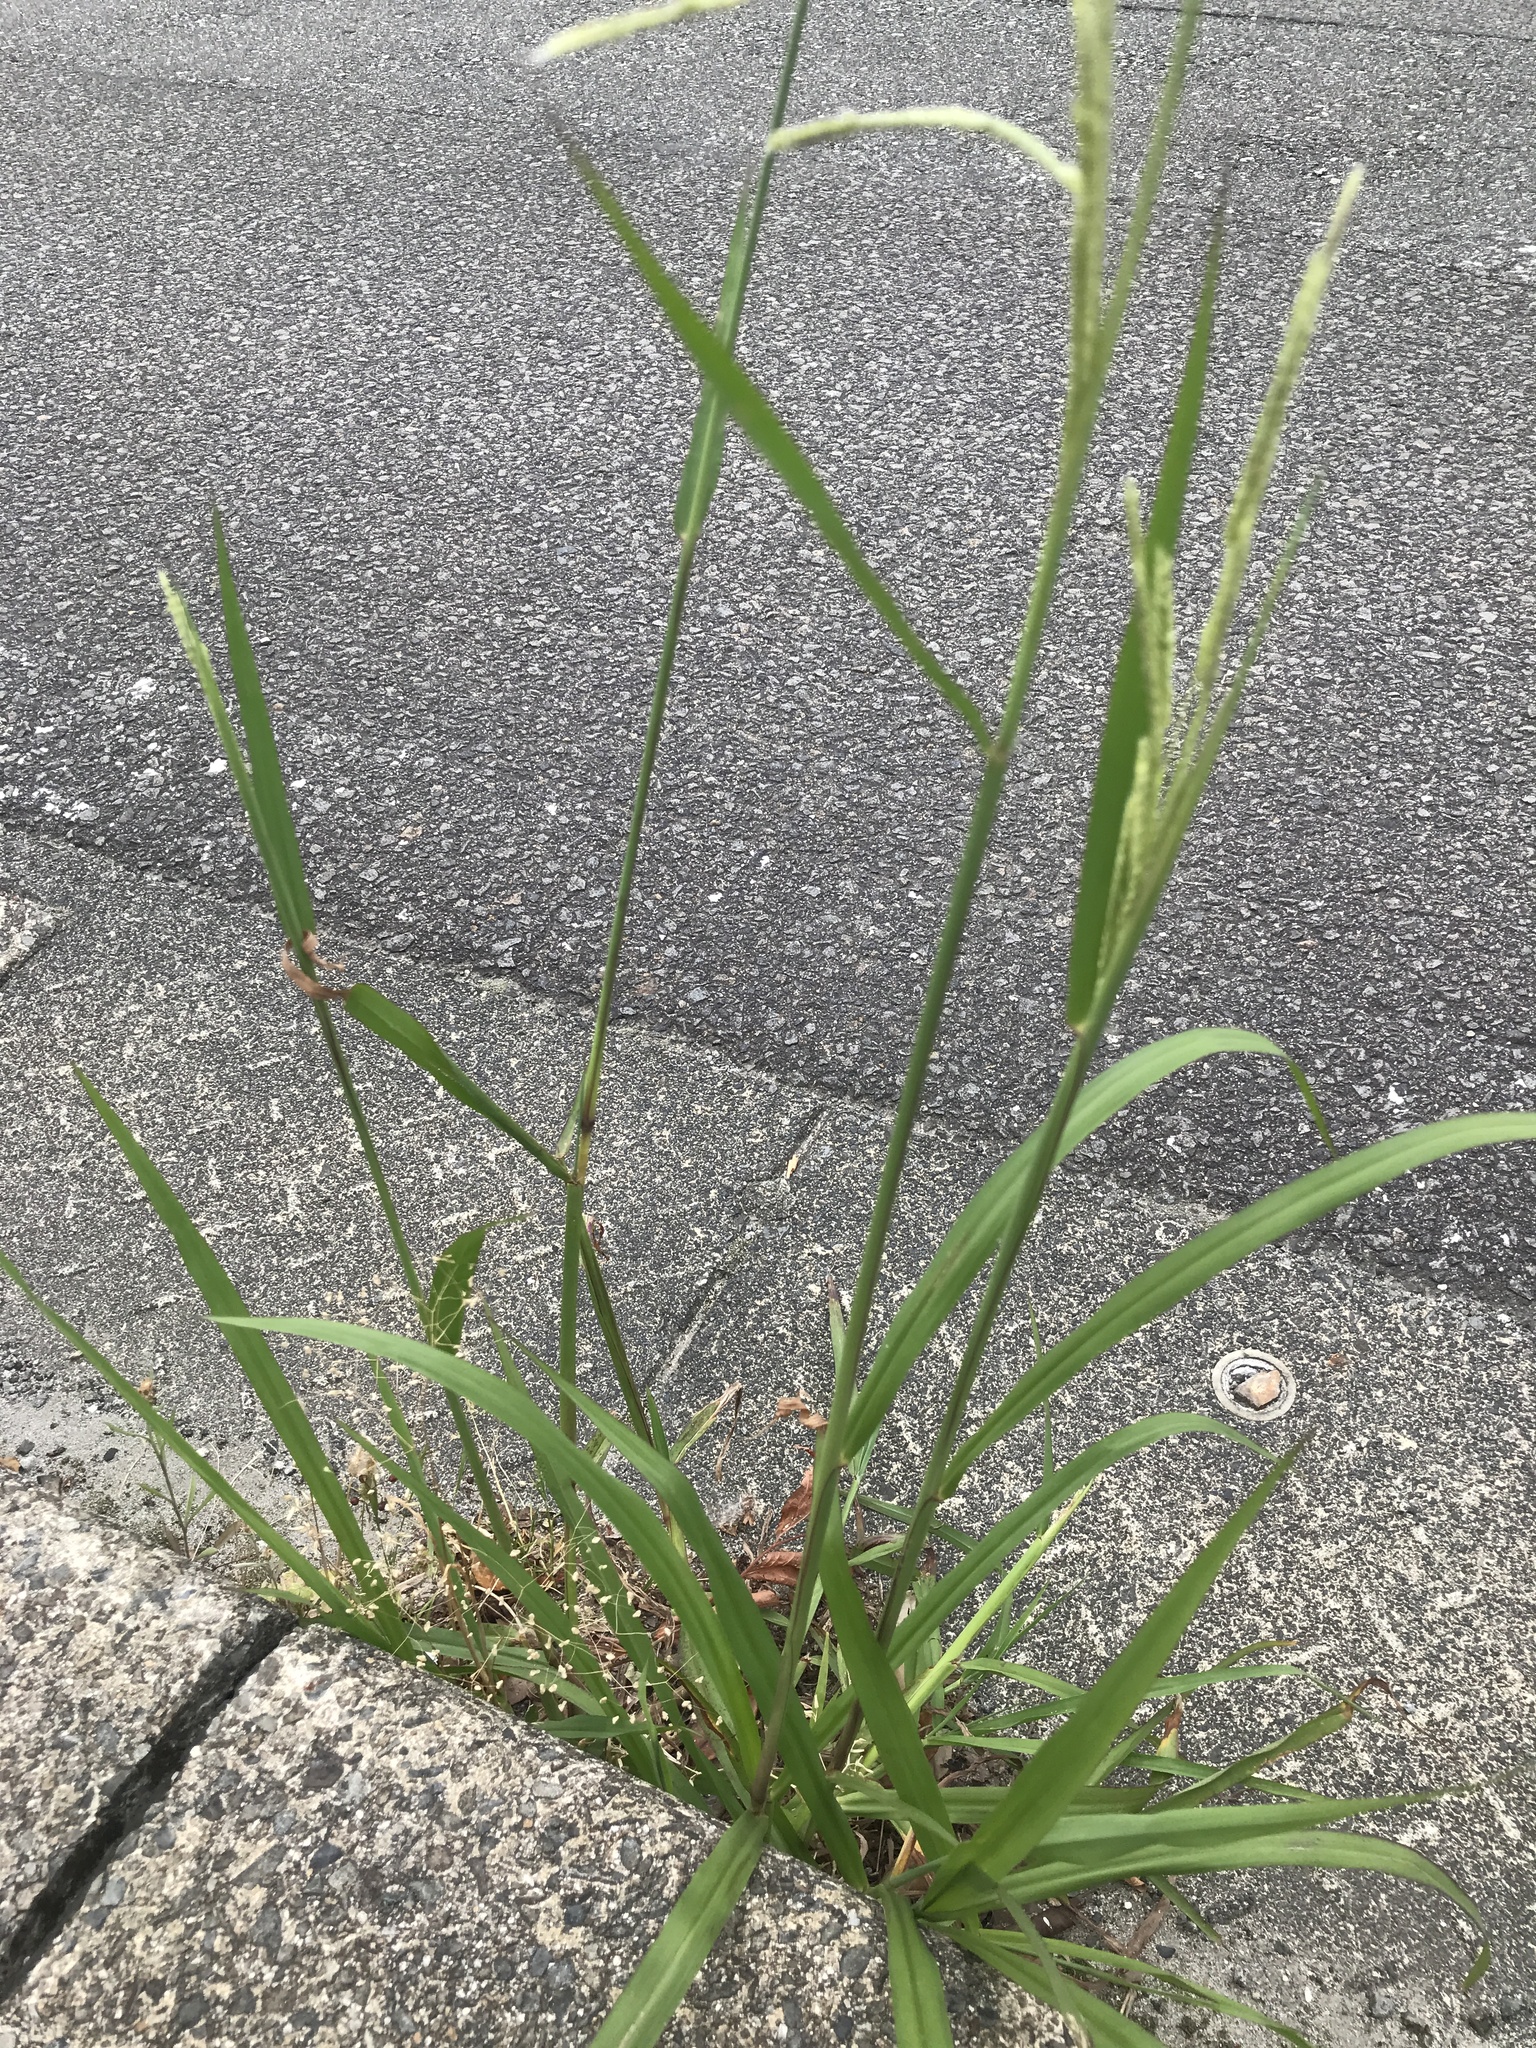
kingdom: Plantae
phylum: Tracheophyta
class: Liliopsida
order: Poales
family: Poaceae
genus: Paspalum
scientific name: Paspalum urvillei
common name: Vasey's grass
